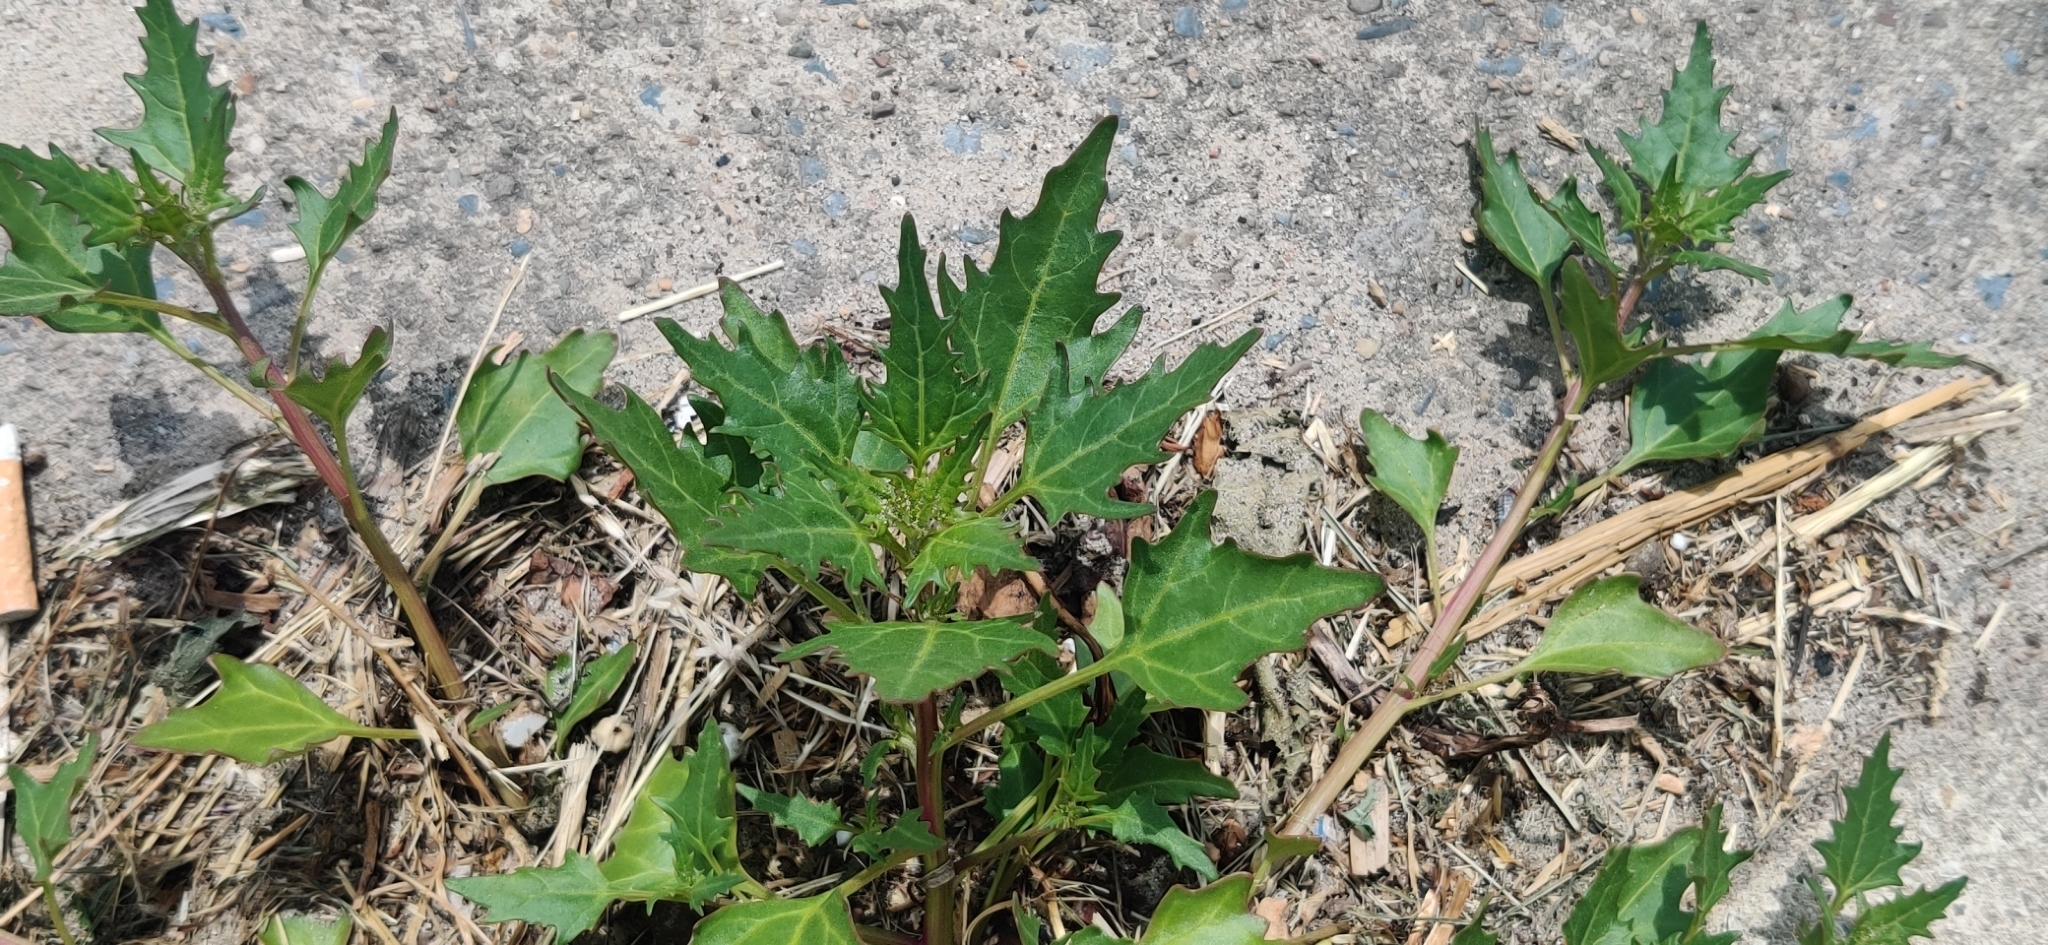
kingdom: Plantae
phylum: Tracheophyta
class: Magnoliopsida
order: Caryophyllales
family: Amaranthaceae
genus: Oxybasis
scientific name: Oxybasis rubra
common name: Red goosefoot
